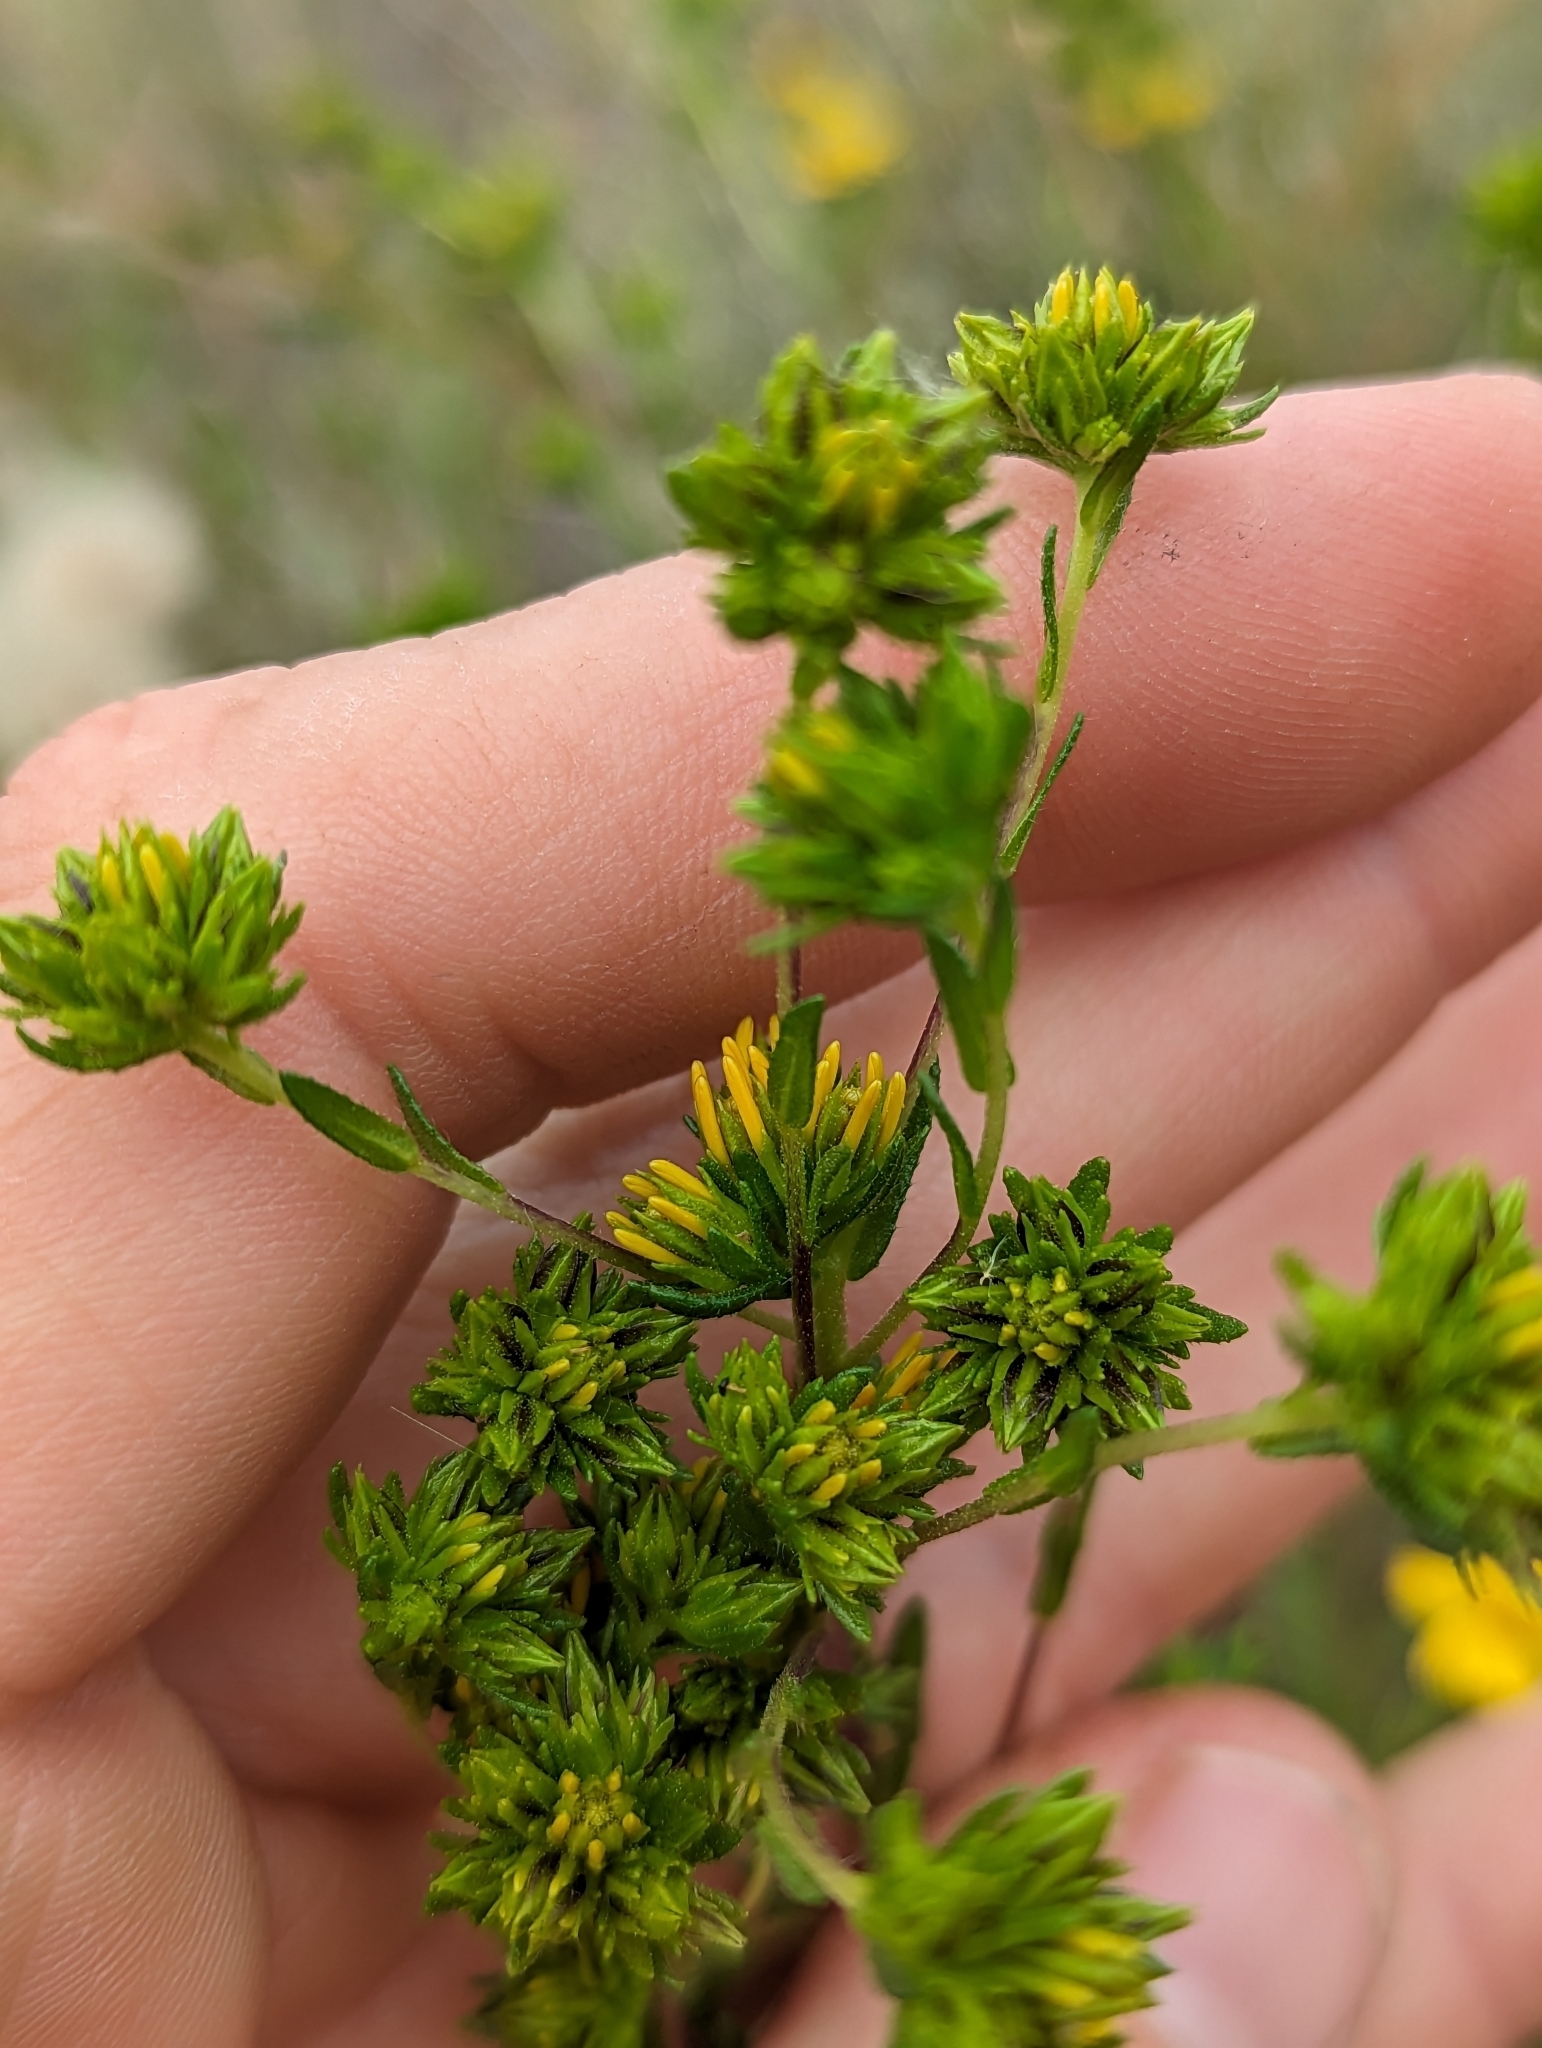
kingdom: Plantae
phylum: Tracheophyta
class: Magnoliopsida
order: Asterales
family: Asteraceae
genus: Deinandra
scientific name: Deinandra fasciculata
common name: Clustered tarweed
